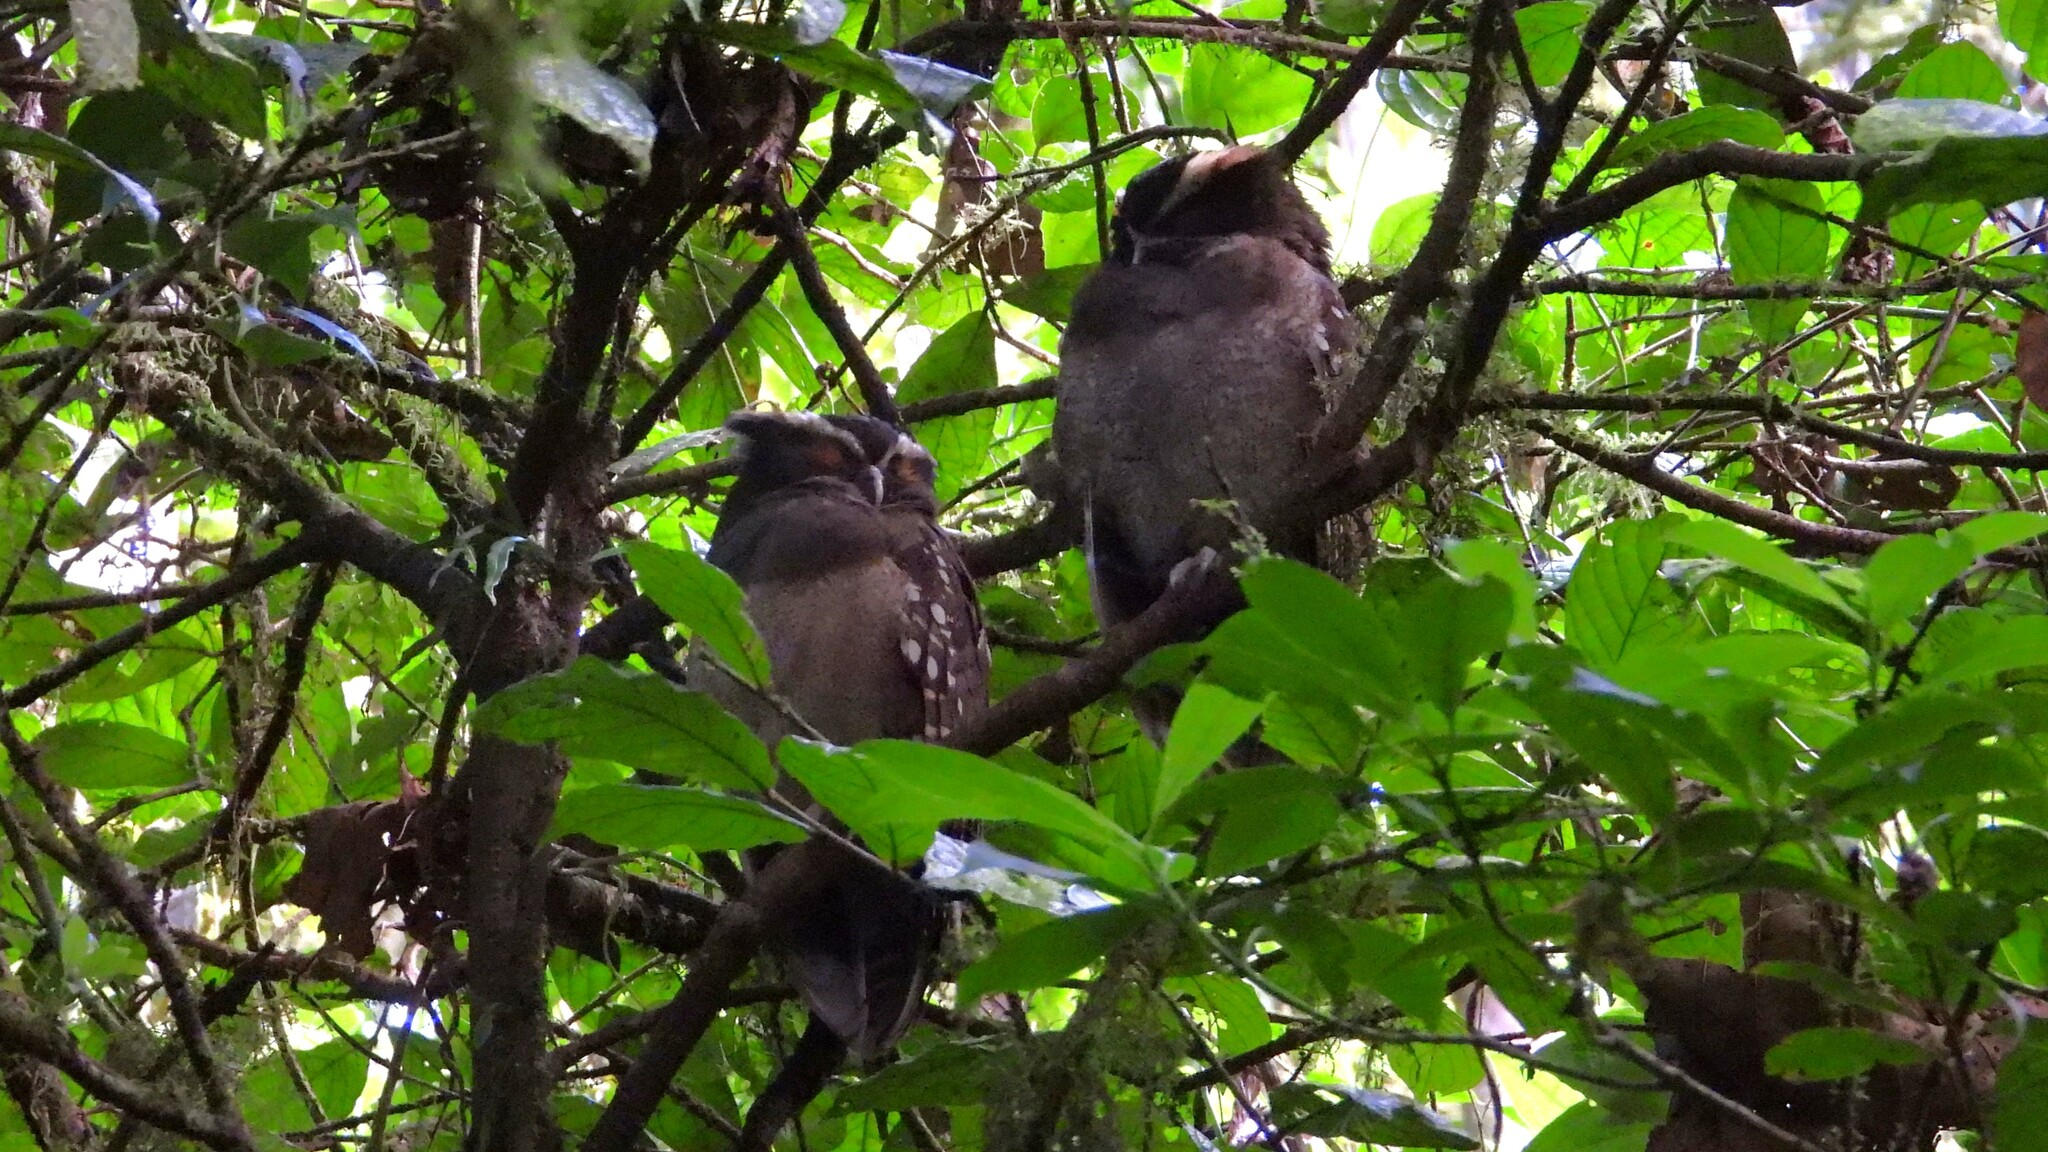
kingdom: Animalia
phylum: Chordata
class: Aves
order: Strigiformes
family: Strigidae
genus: Lophostrix
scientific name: Lophostrix cristata
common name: Crested owl
